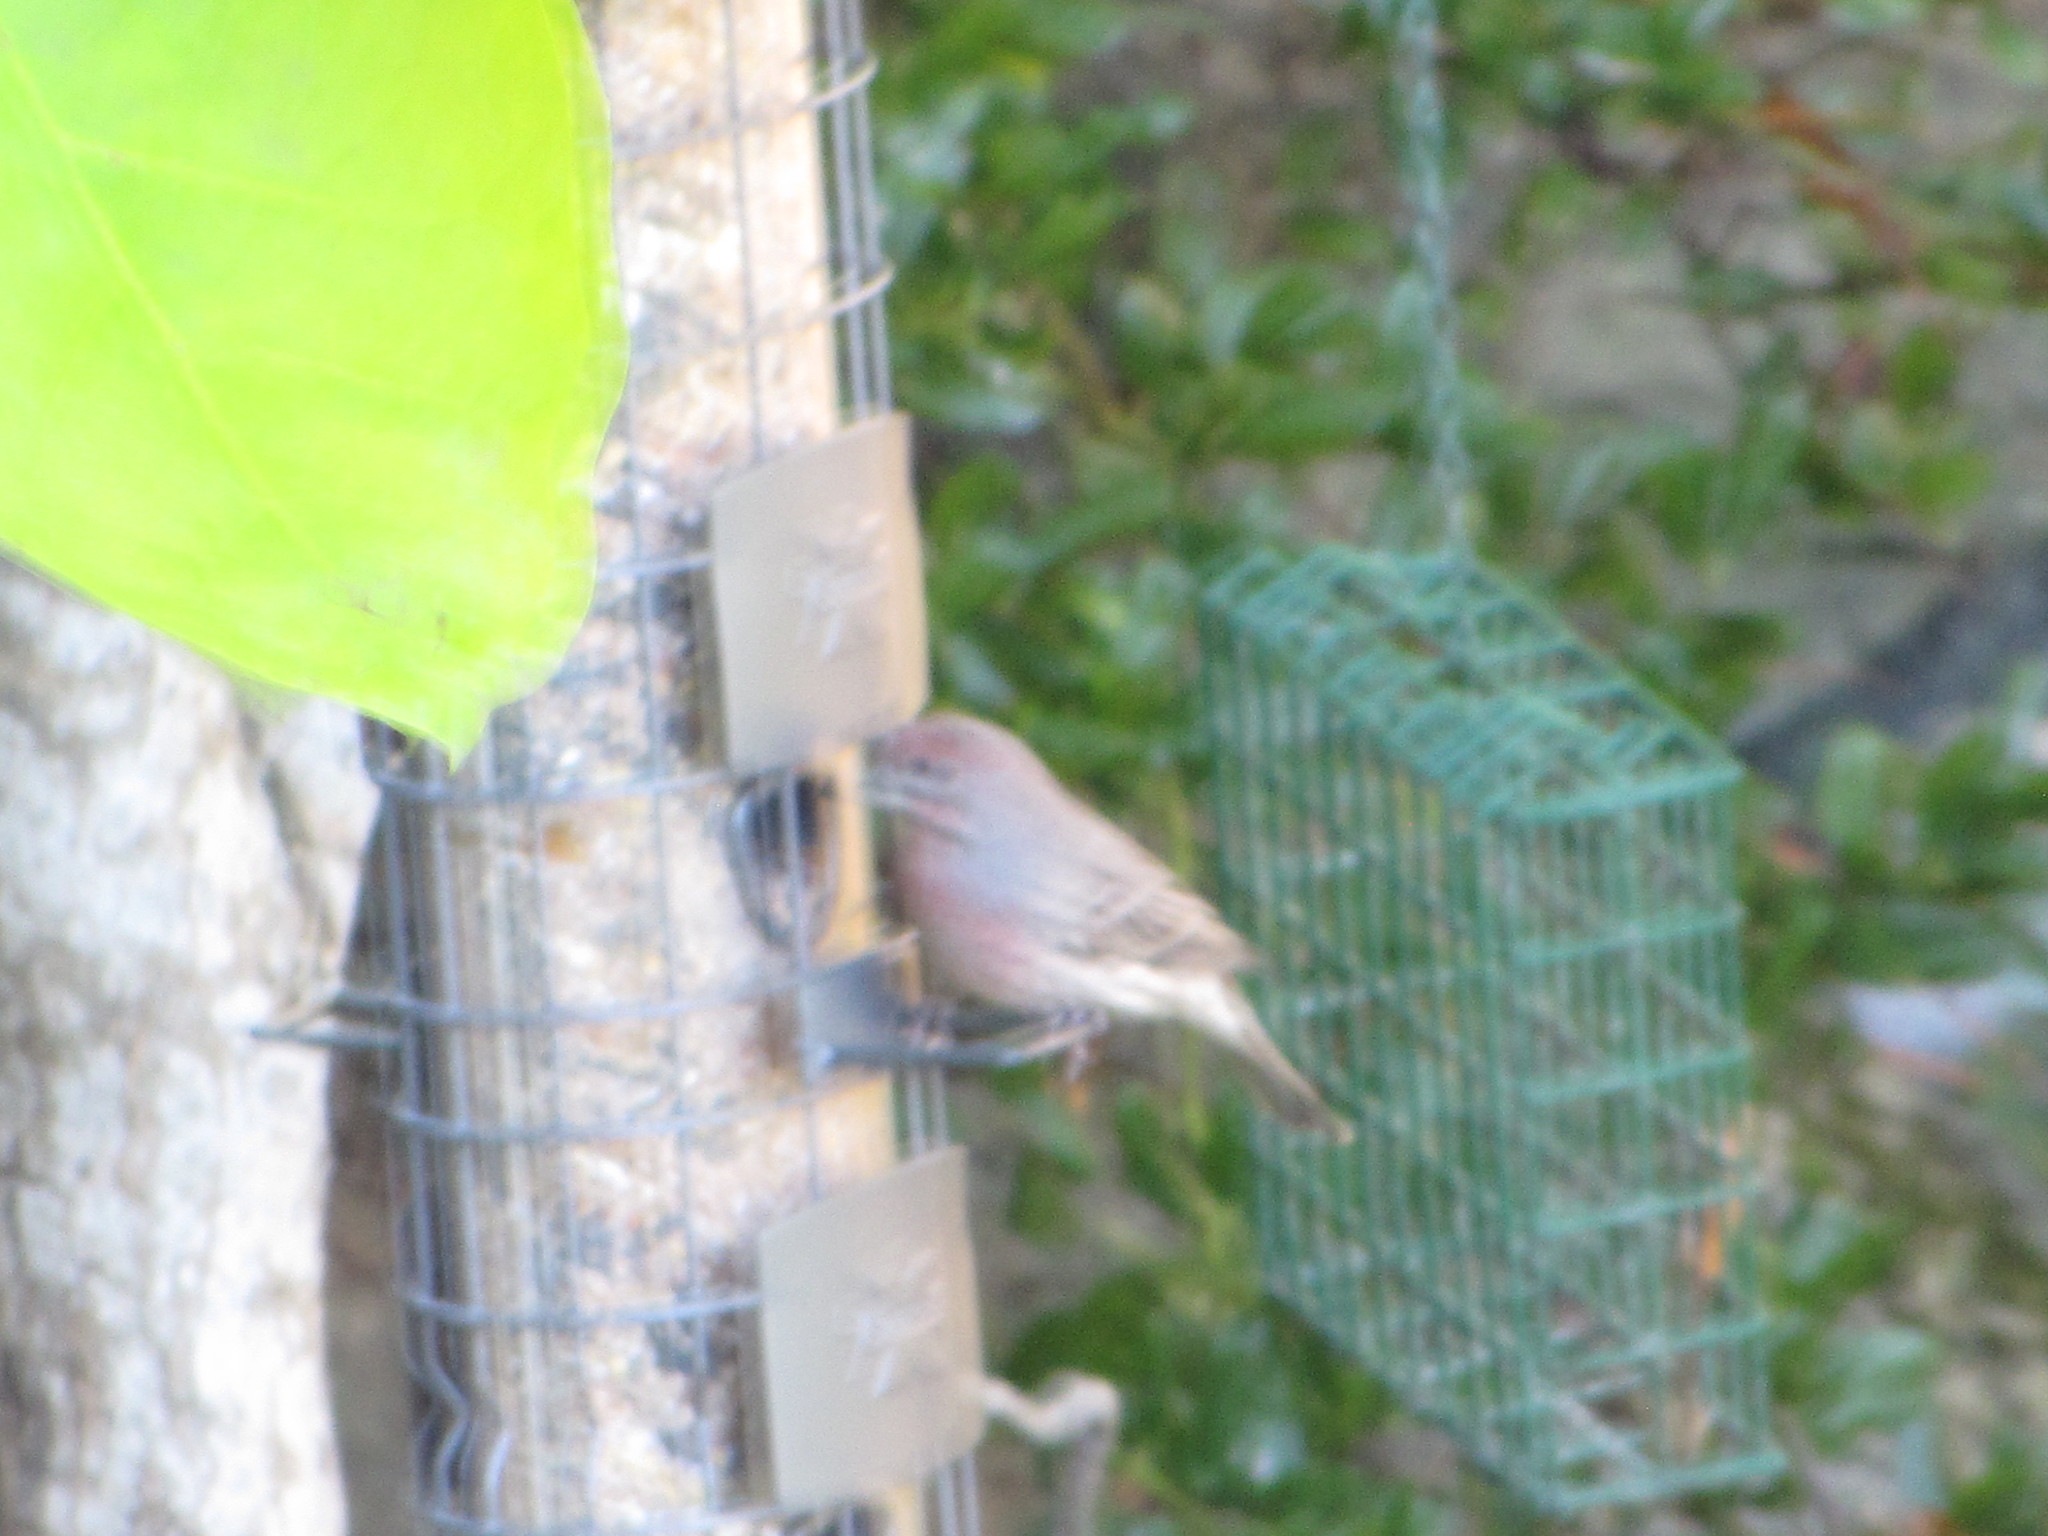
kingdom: Animalia
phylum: Chordata
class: Aves
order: Passeriformes
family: Fringillidae
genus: Haemorhous
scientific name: Haemorhous mexicanus
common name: House finch
